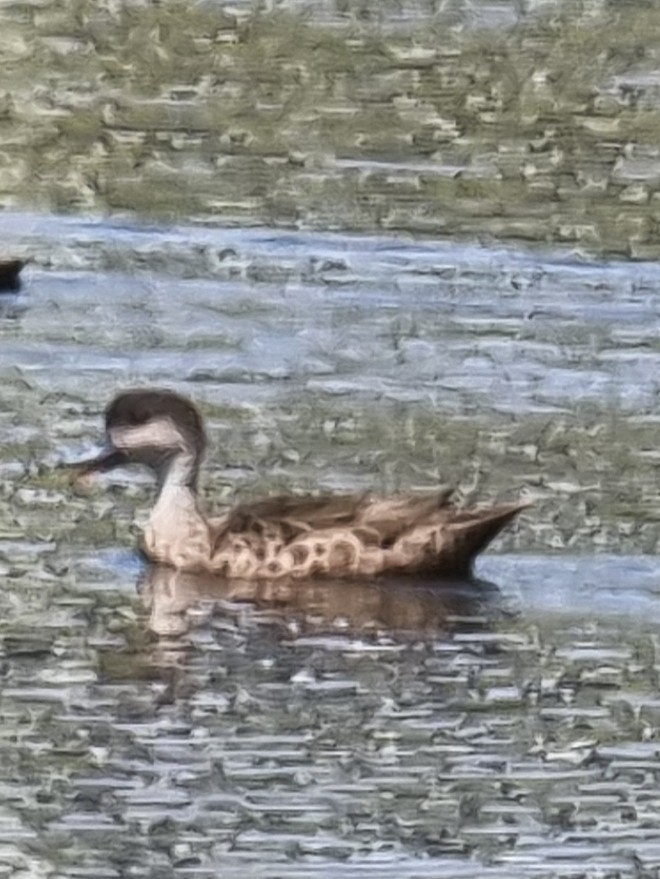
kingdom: Animalia
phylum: Chordata
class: Aves
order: Anseriformes
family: Anatidae
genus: Anas
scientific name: Anas gracilis
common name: Grey teal
